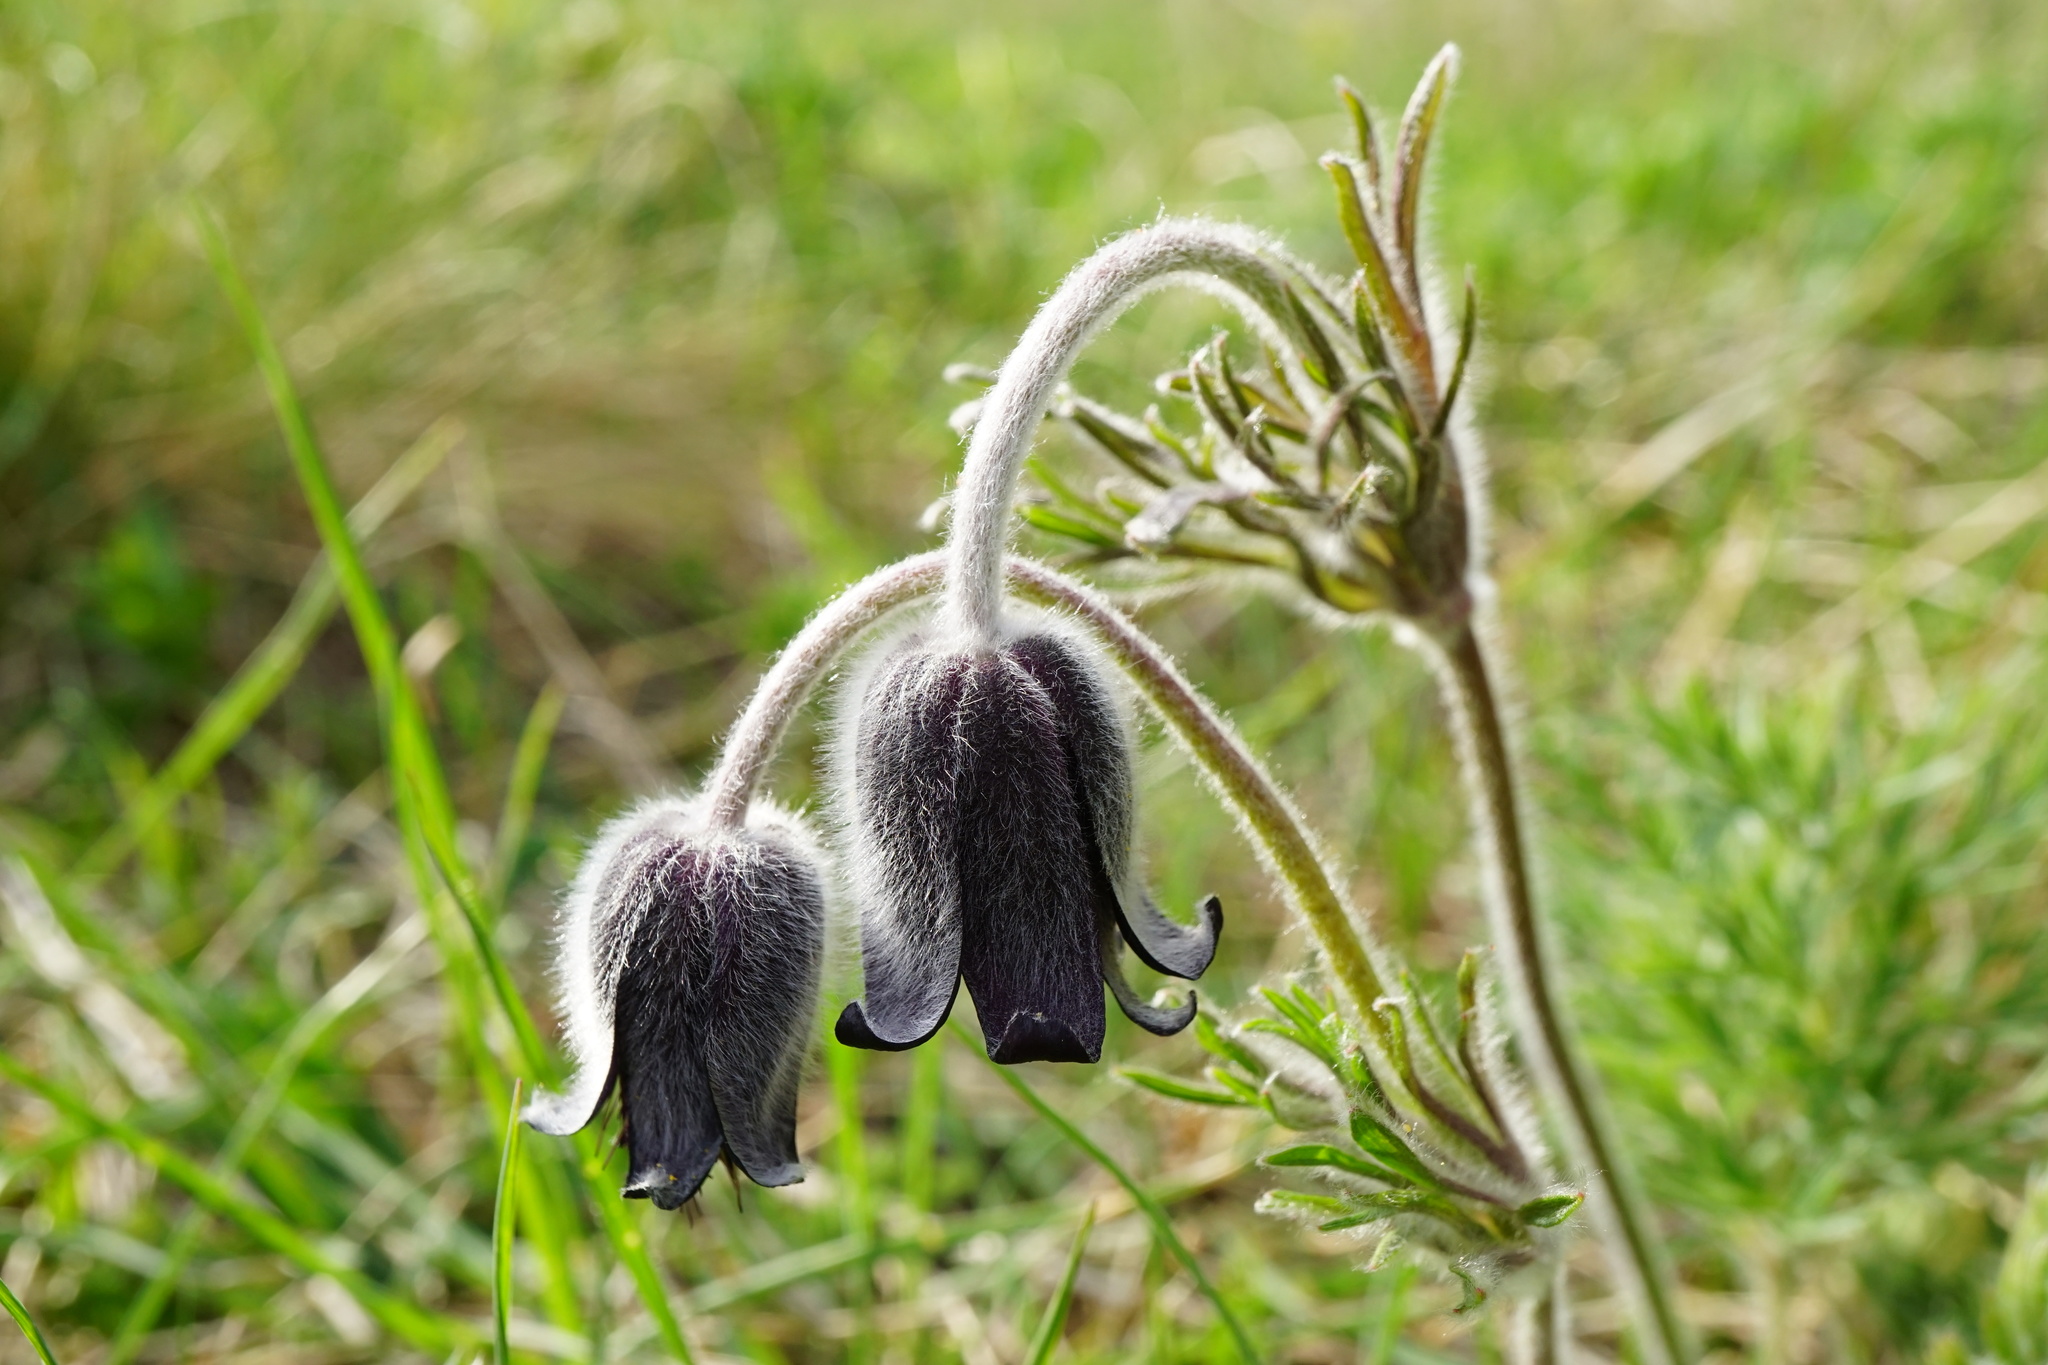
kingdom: Plantae
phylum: Tracheophyta
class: Magnoliopsida
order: Ranunculales
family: Ranunculaceae
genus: Pulsatilla
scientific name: Pulsatilla pratensis
